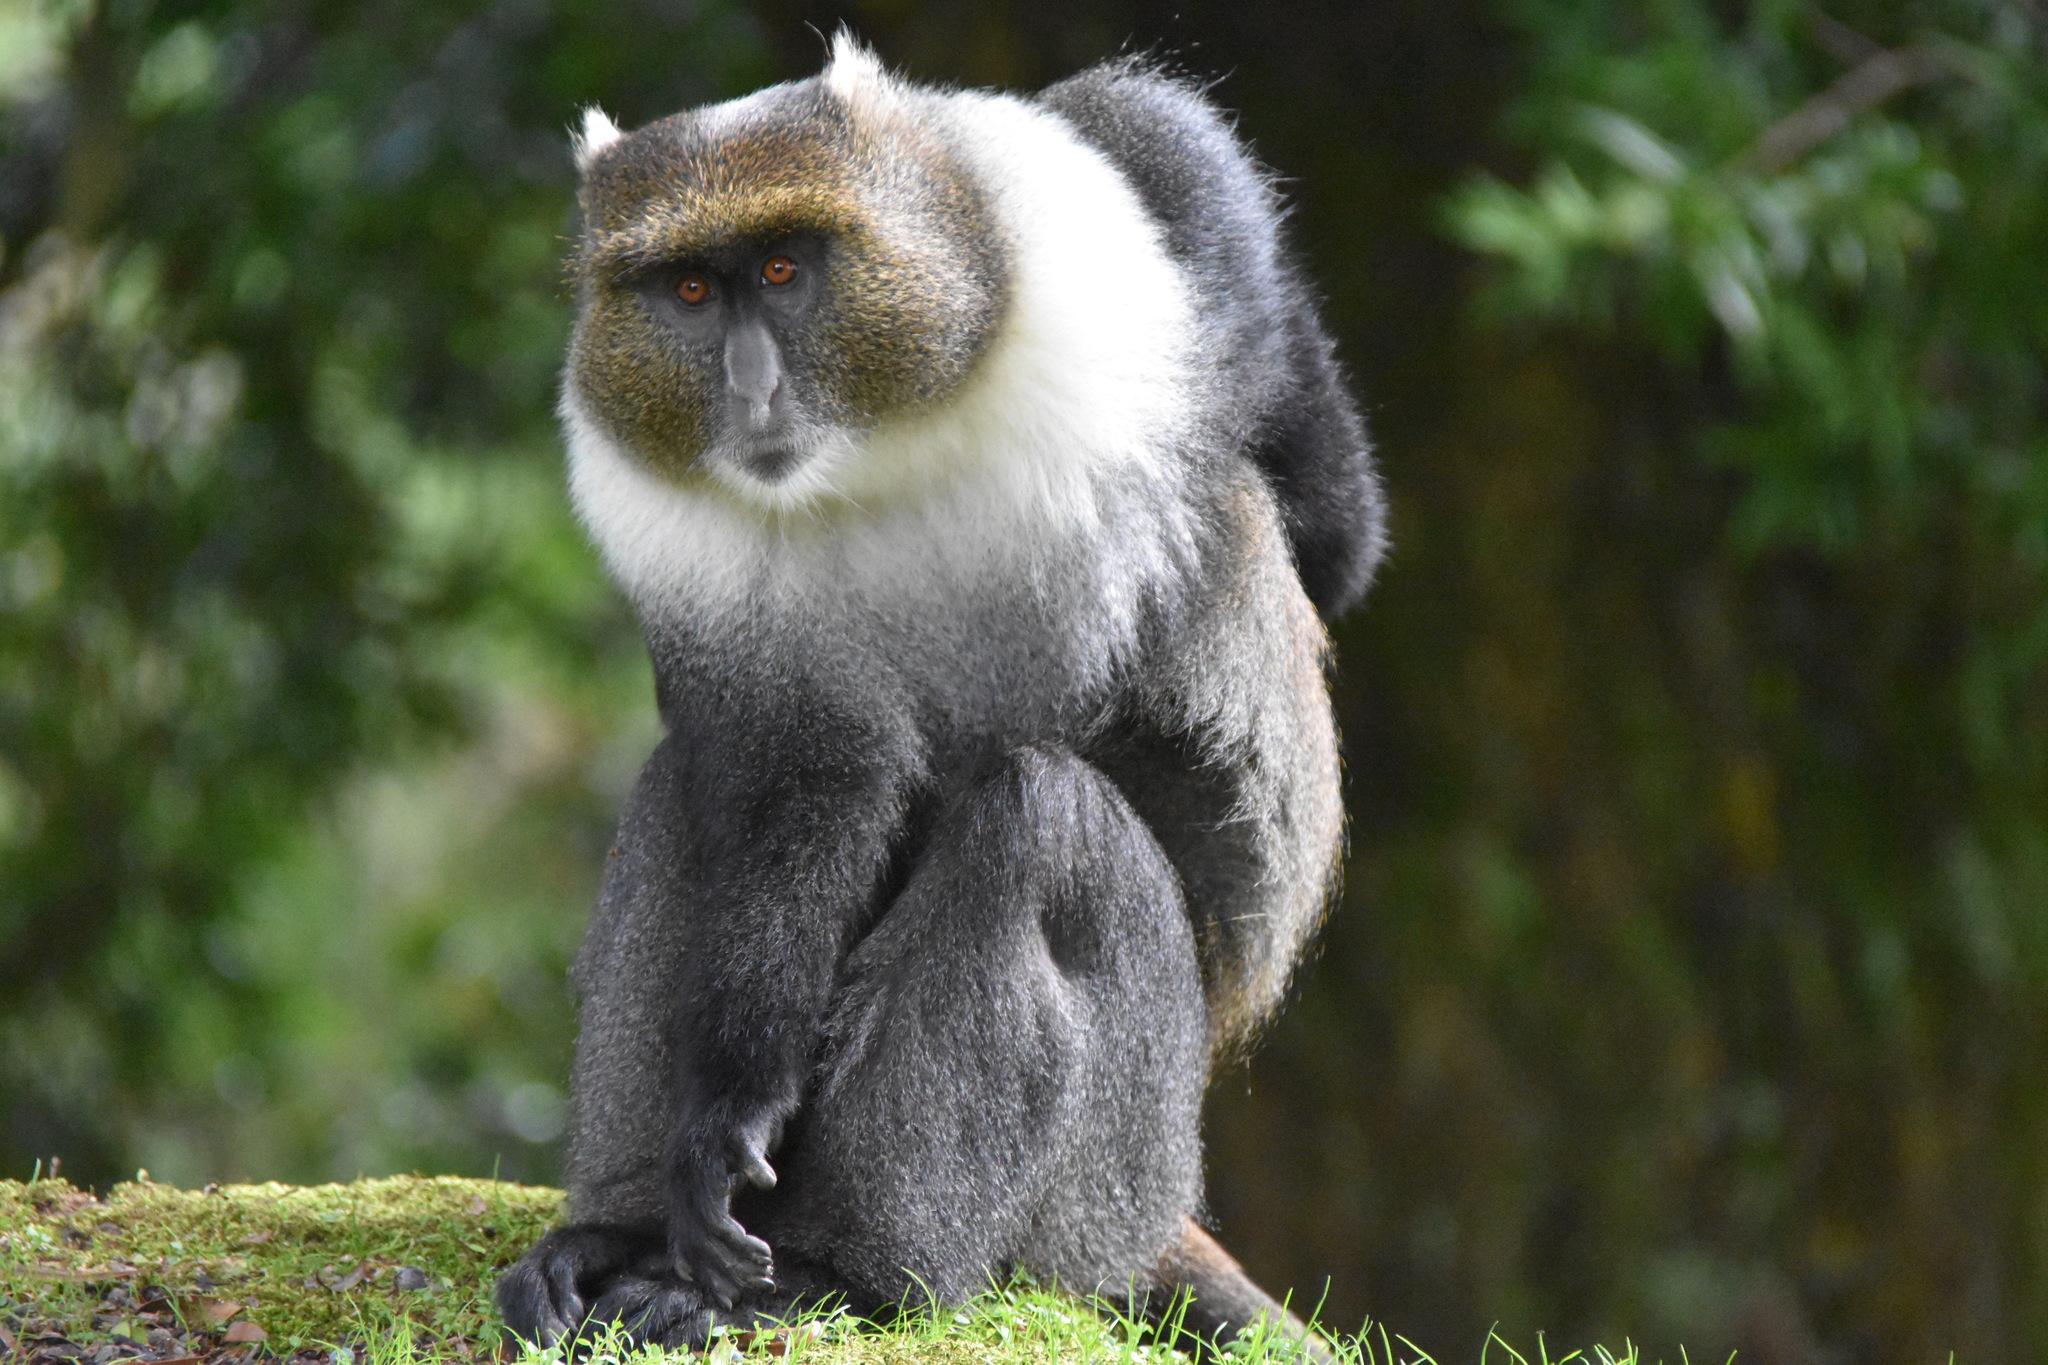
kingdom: Animalia
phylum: Chordata
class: Mammalia
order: Primates
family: Cercopithecidae
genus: Cercopithecus
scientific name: Cercopithecus mitis
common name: Blue monkey
